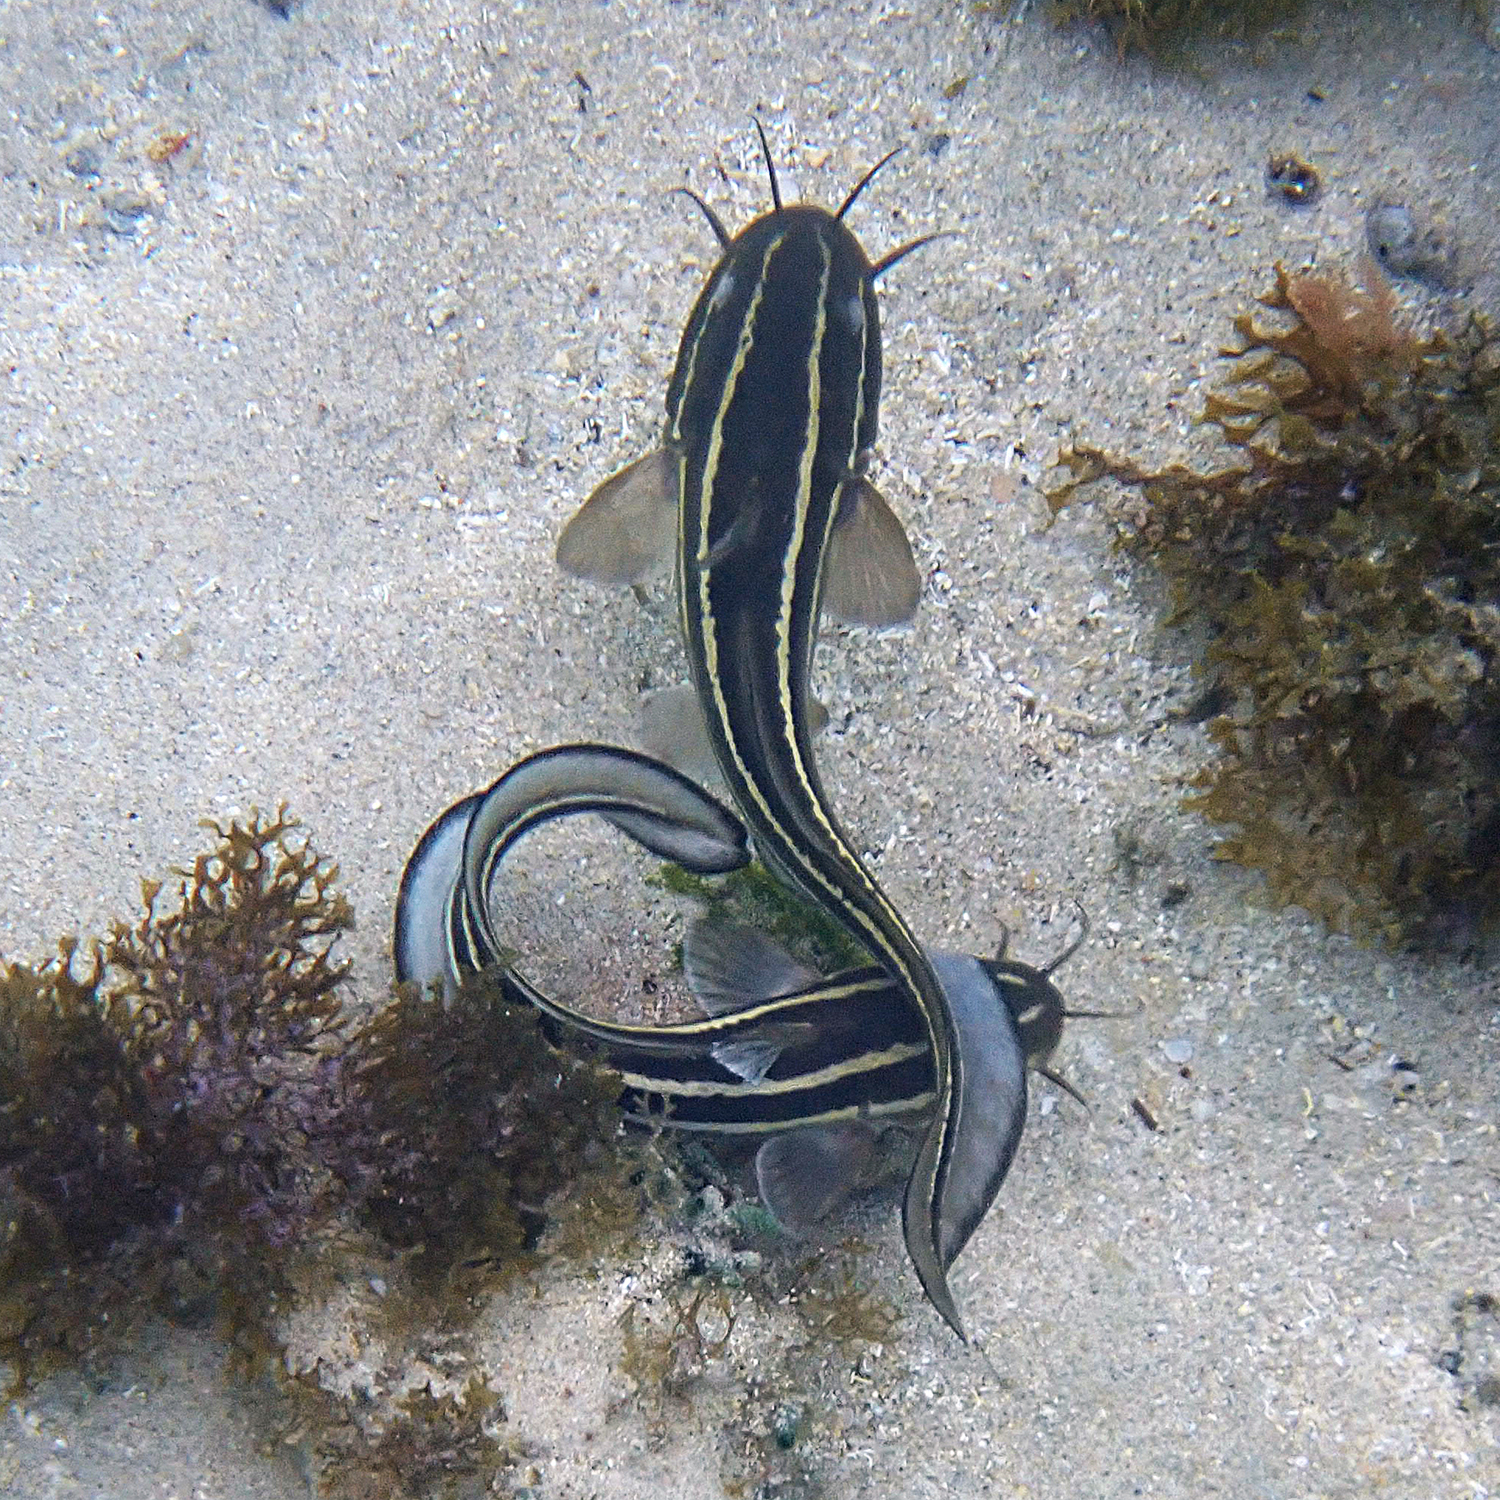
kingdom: Animalia
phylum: Chordata
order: Siluriformes
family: Plotosidae
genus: Plotosus
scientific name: Plotosus lineatus
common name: Striped eel catfish
